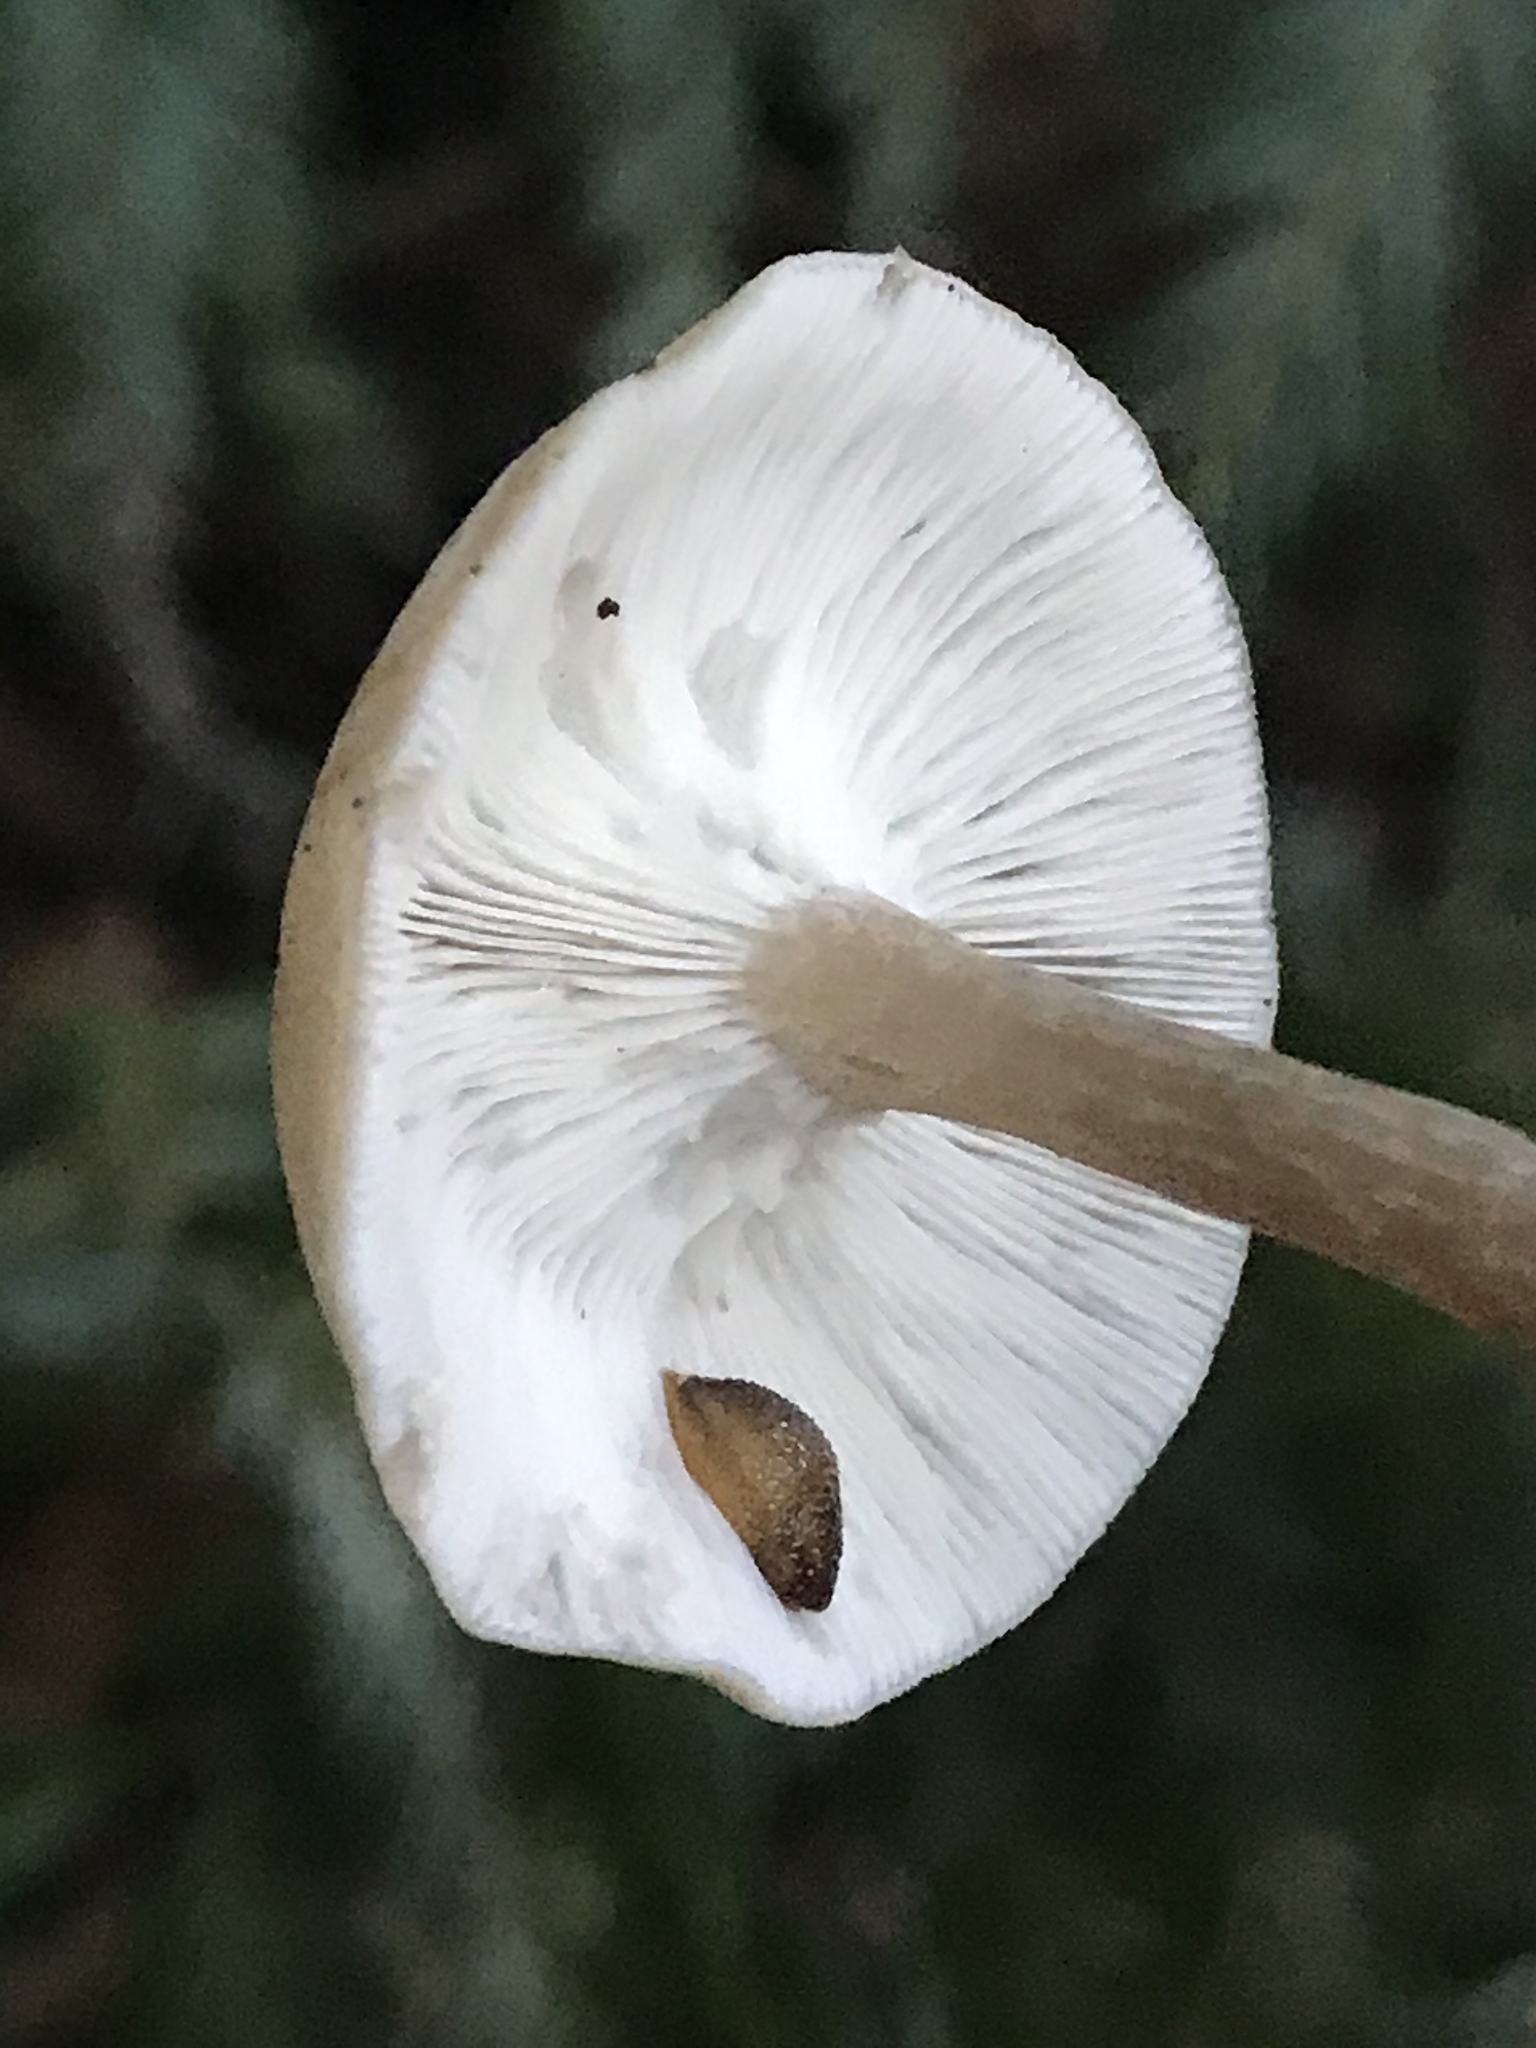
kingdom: Animalia
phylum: Mollusca
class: Gastropoda
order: Stylommatophora
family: Arionidae
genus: Arion
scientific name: Arion intermedius
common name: Hedgehog slug
